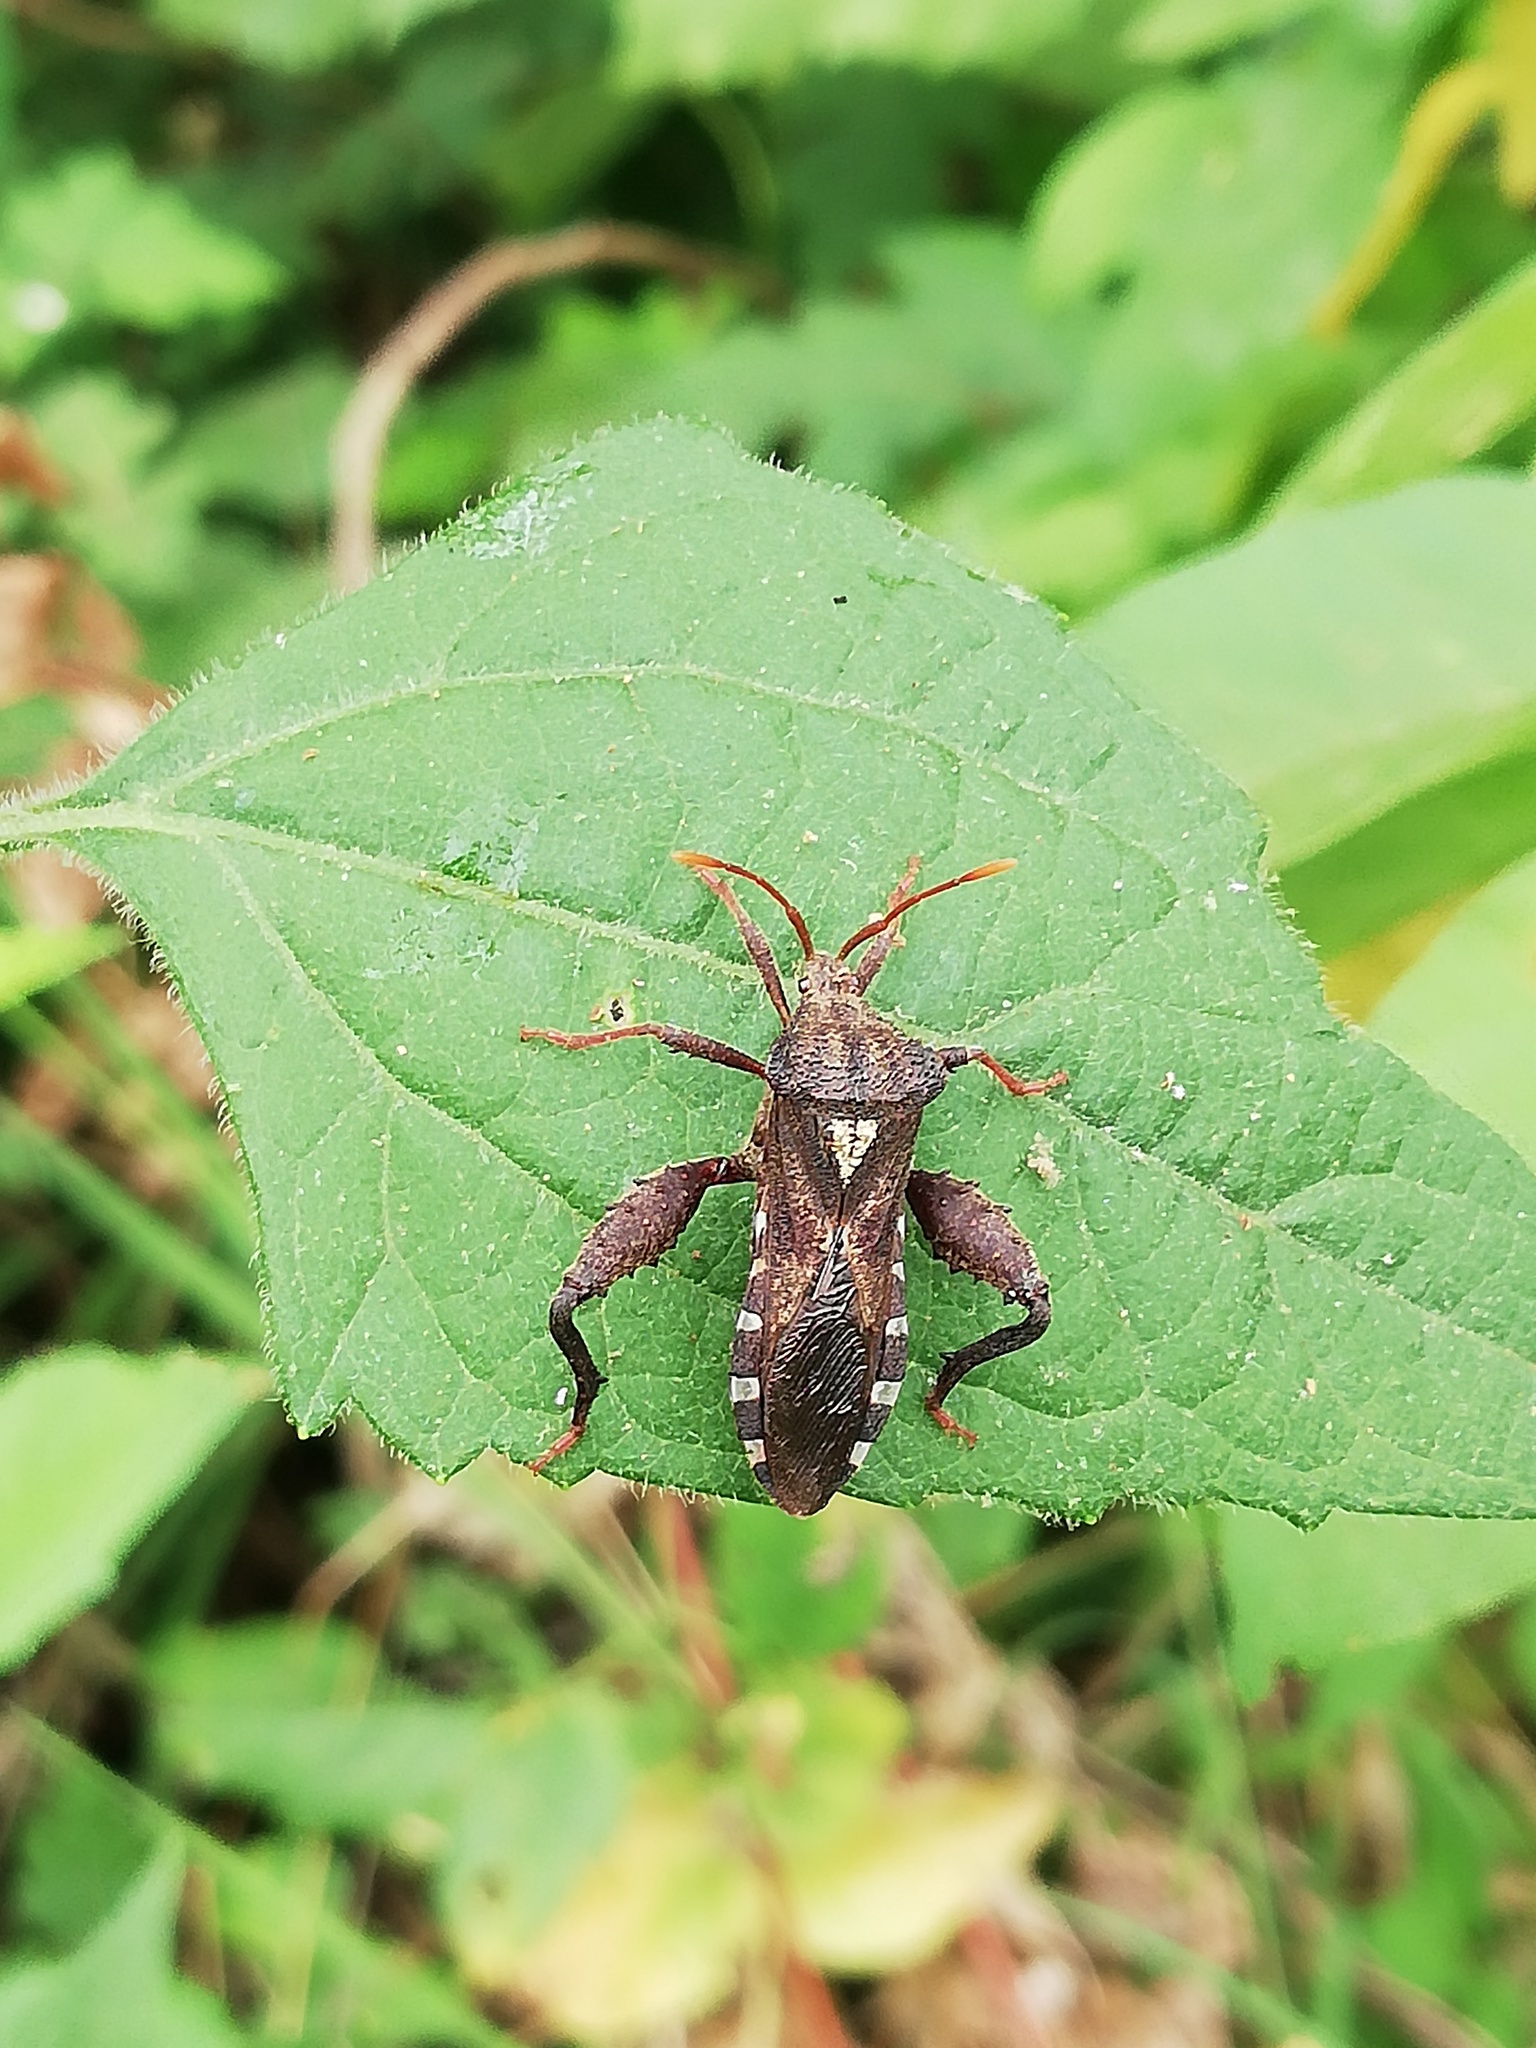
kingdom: Animalia
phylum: Arthropoda
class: Insecta
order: Hemiptera
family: Coreidae
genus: Piezogaster
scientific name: Piezogaster scutellaris
